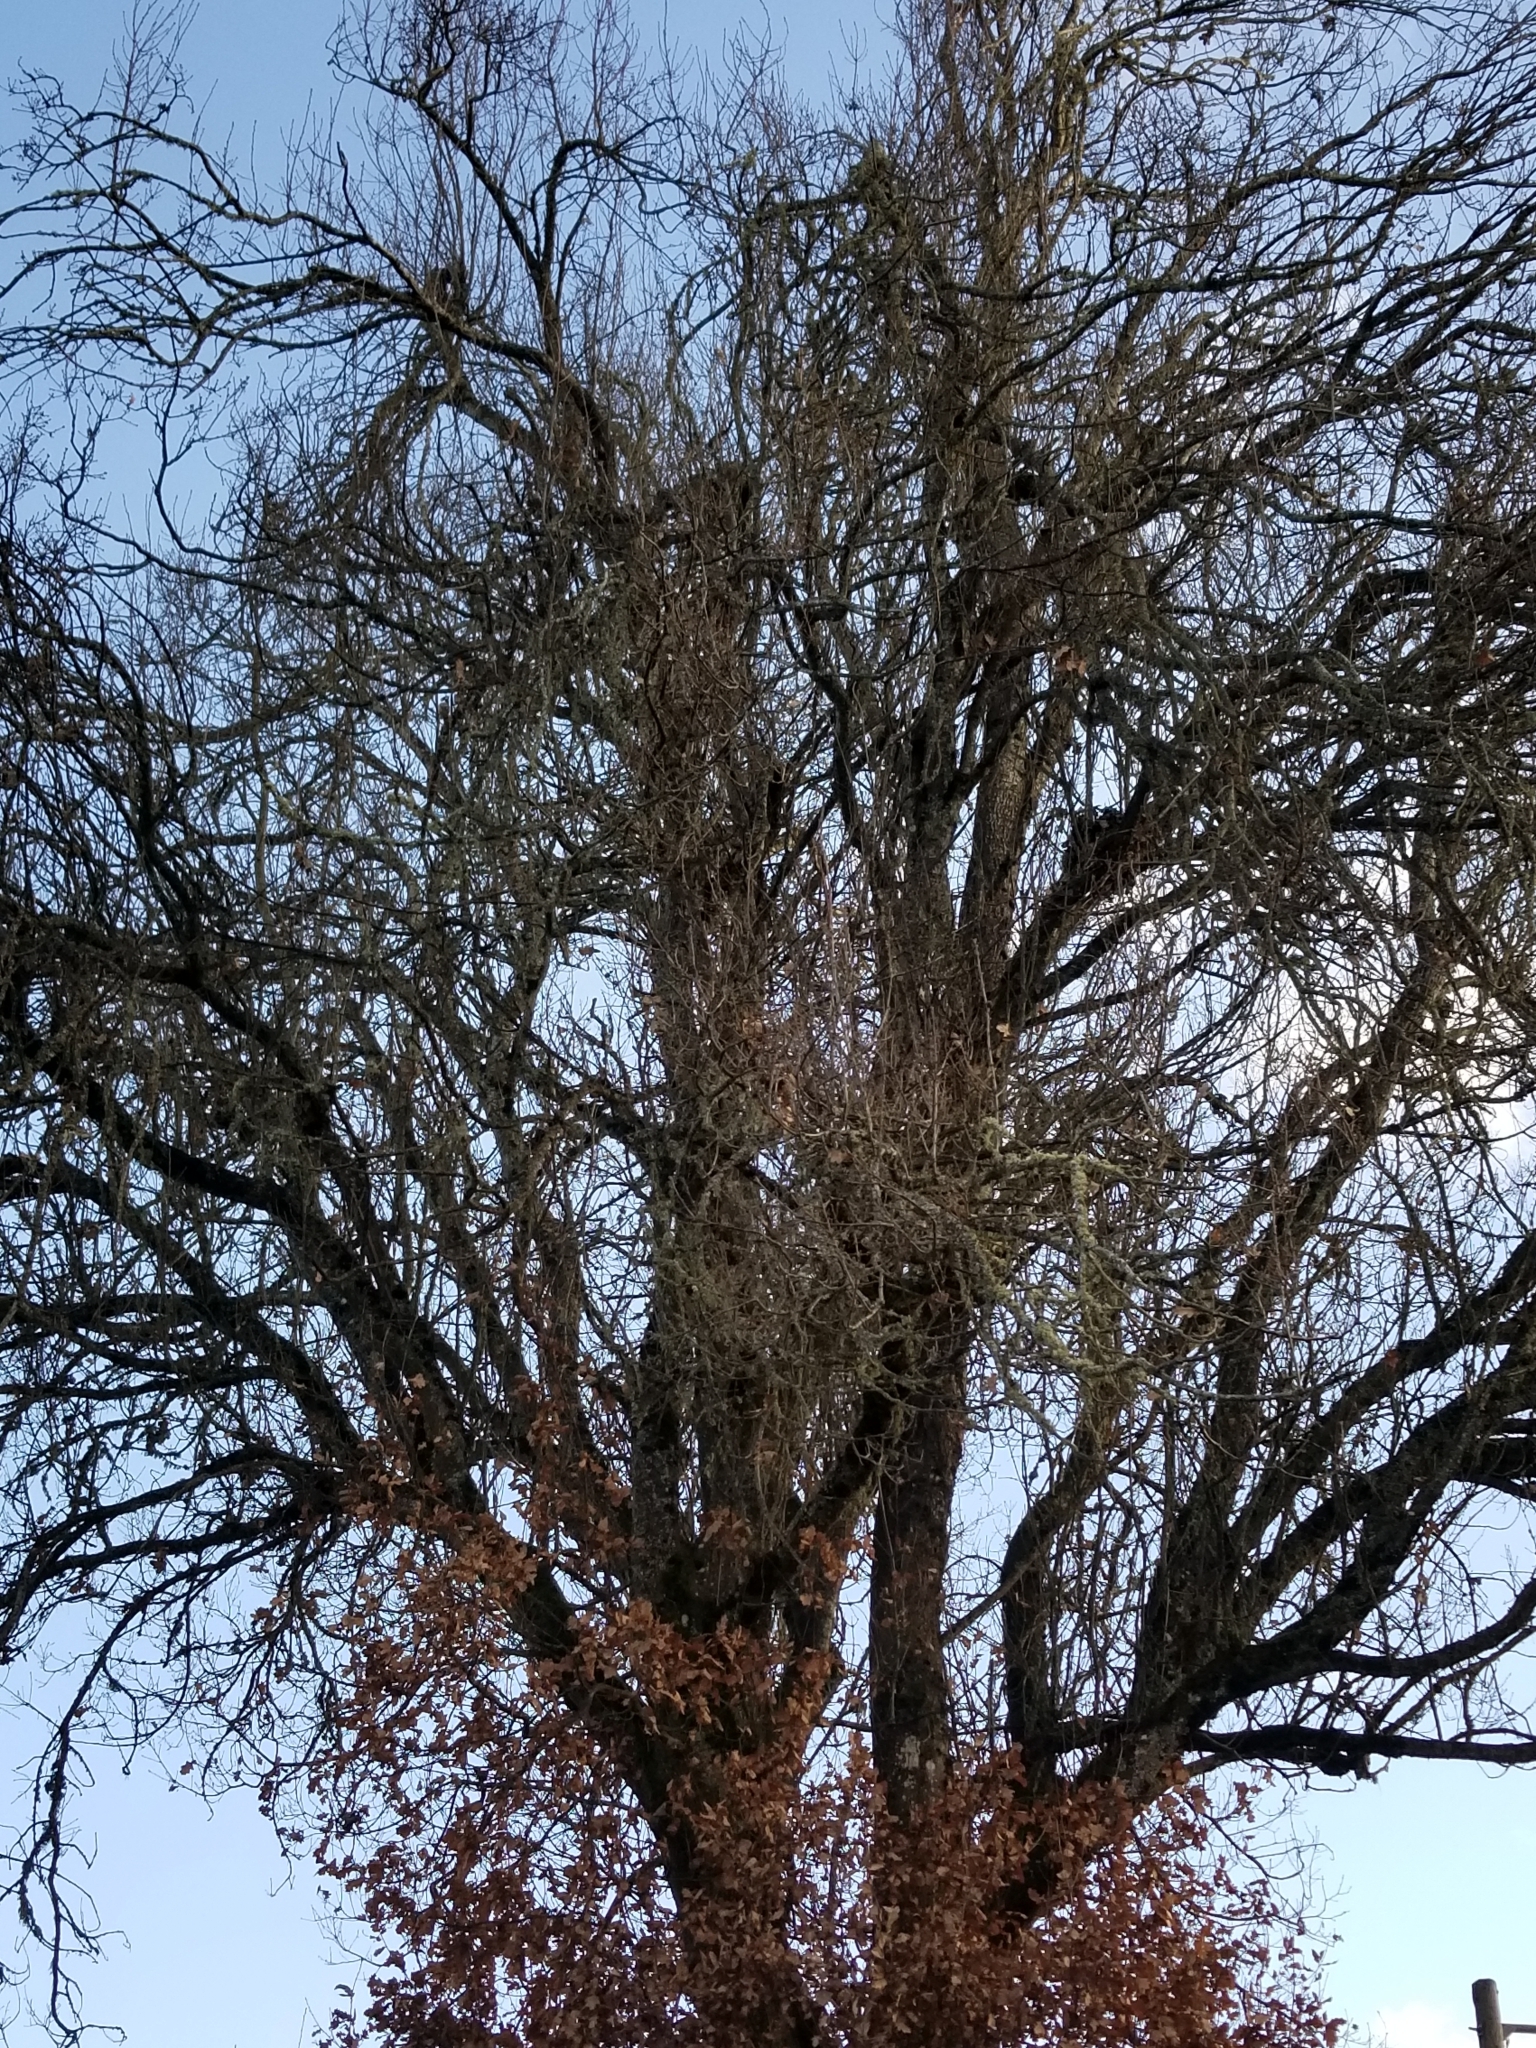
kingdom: Plantae
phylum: Tracheophyta
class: Magnoliopsida
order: Fagales
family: Fagaceae
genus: Quercus
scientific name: Quercus garryana
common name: Garry oak
